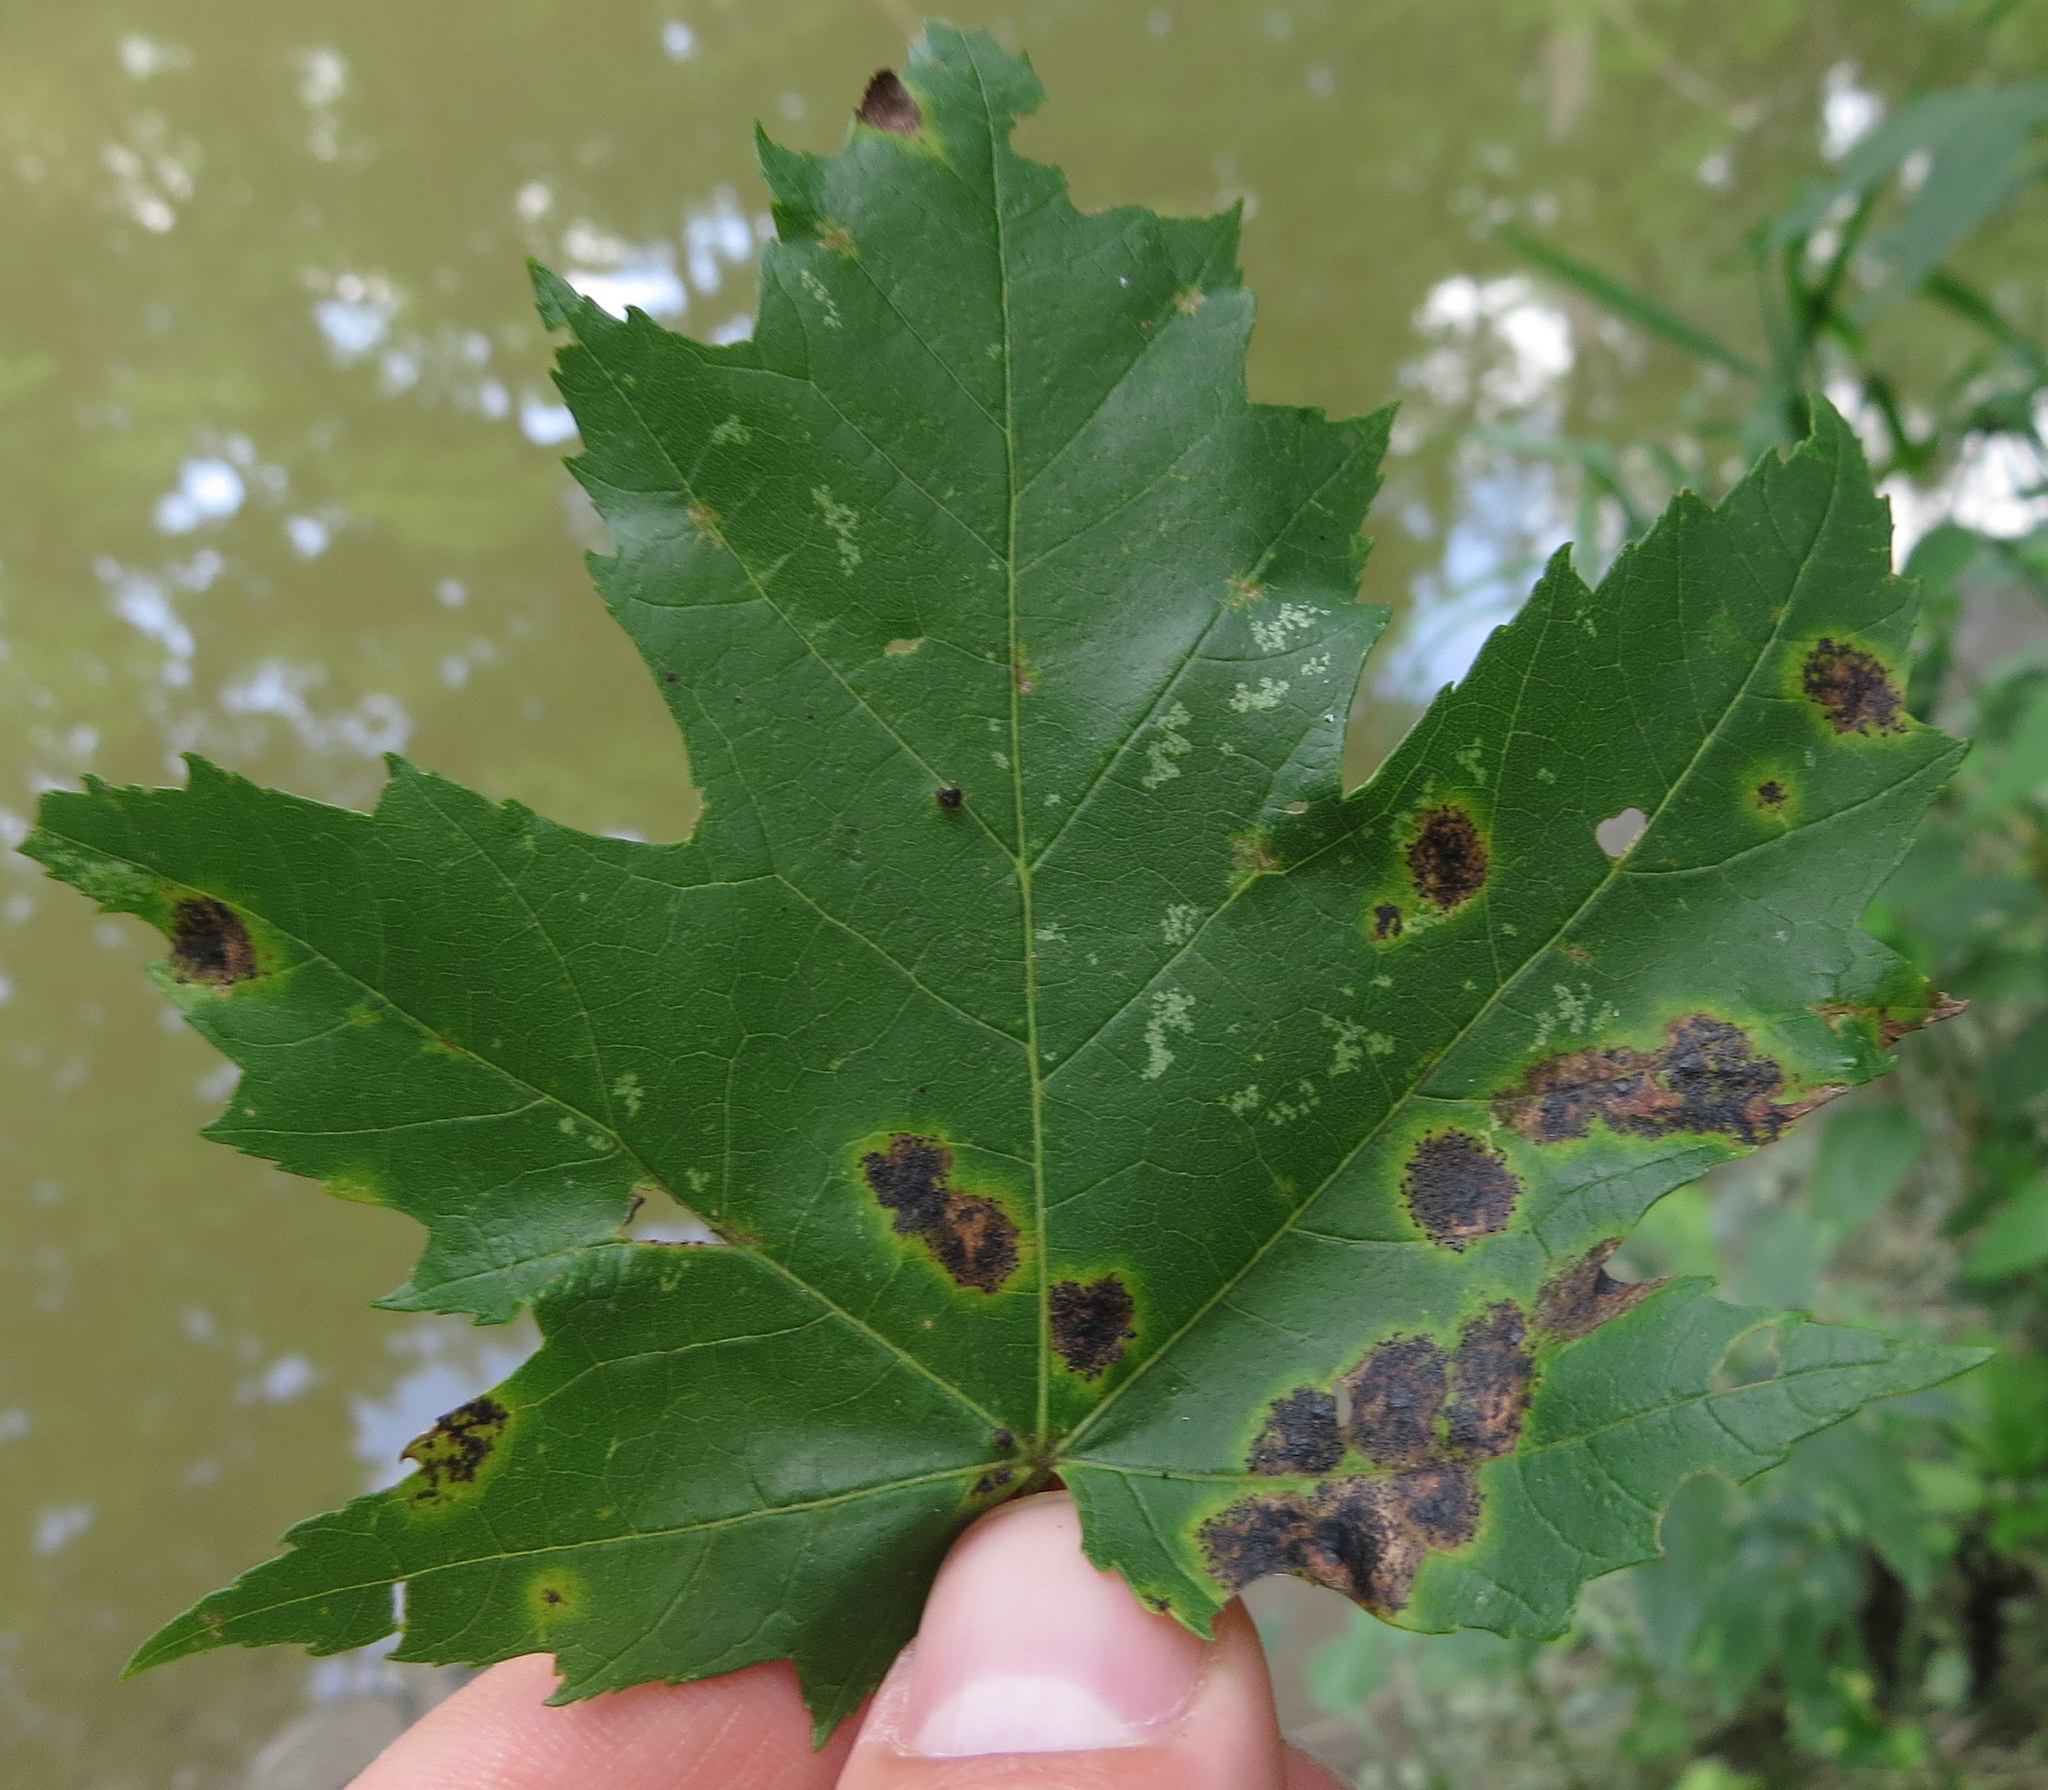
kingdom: Plantae
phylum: Tracheophyta
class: Magnoliopsida
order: Sapindales
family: Sapindaceae
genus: Acer
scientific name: Acer freemanii
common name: Freeman maple
